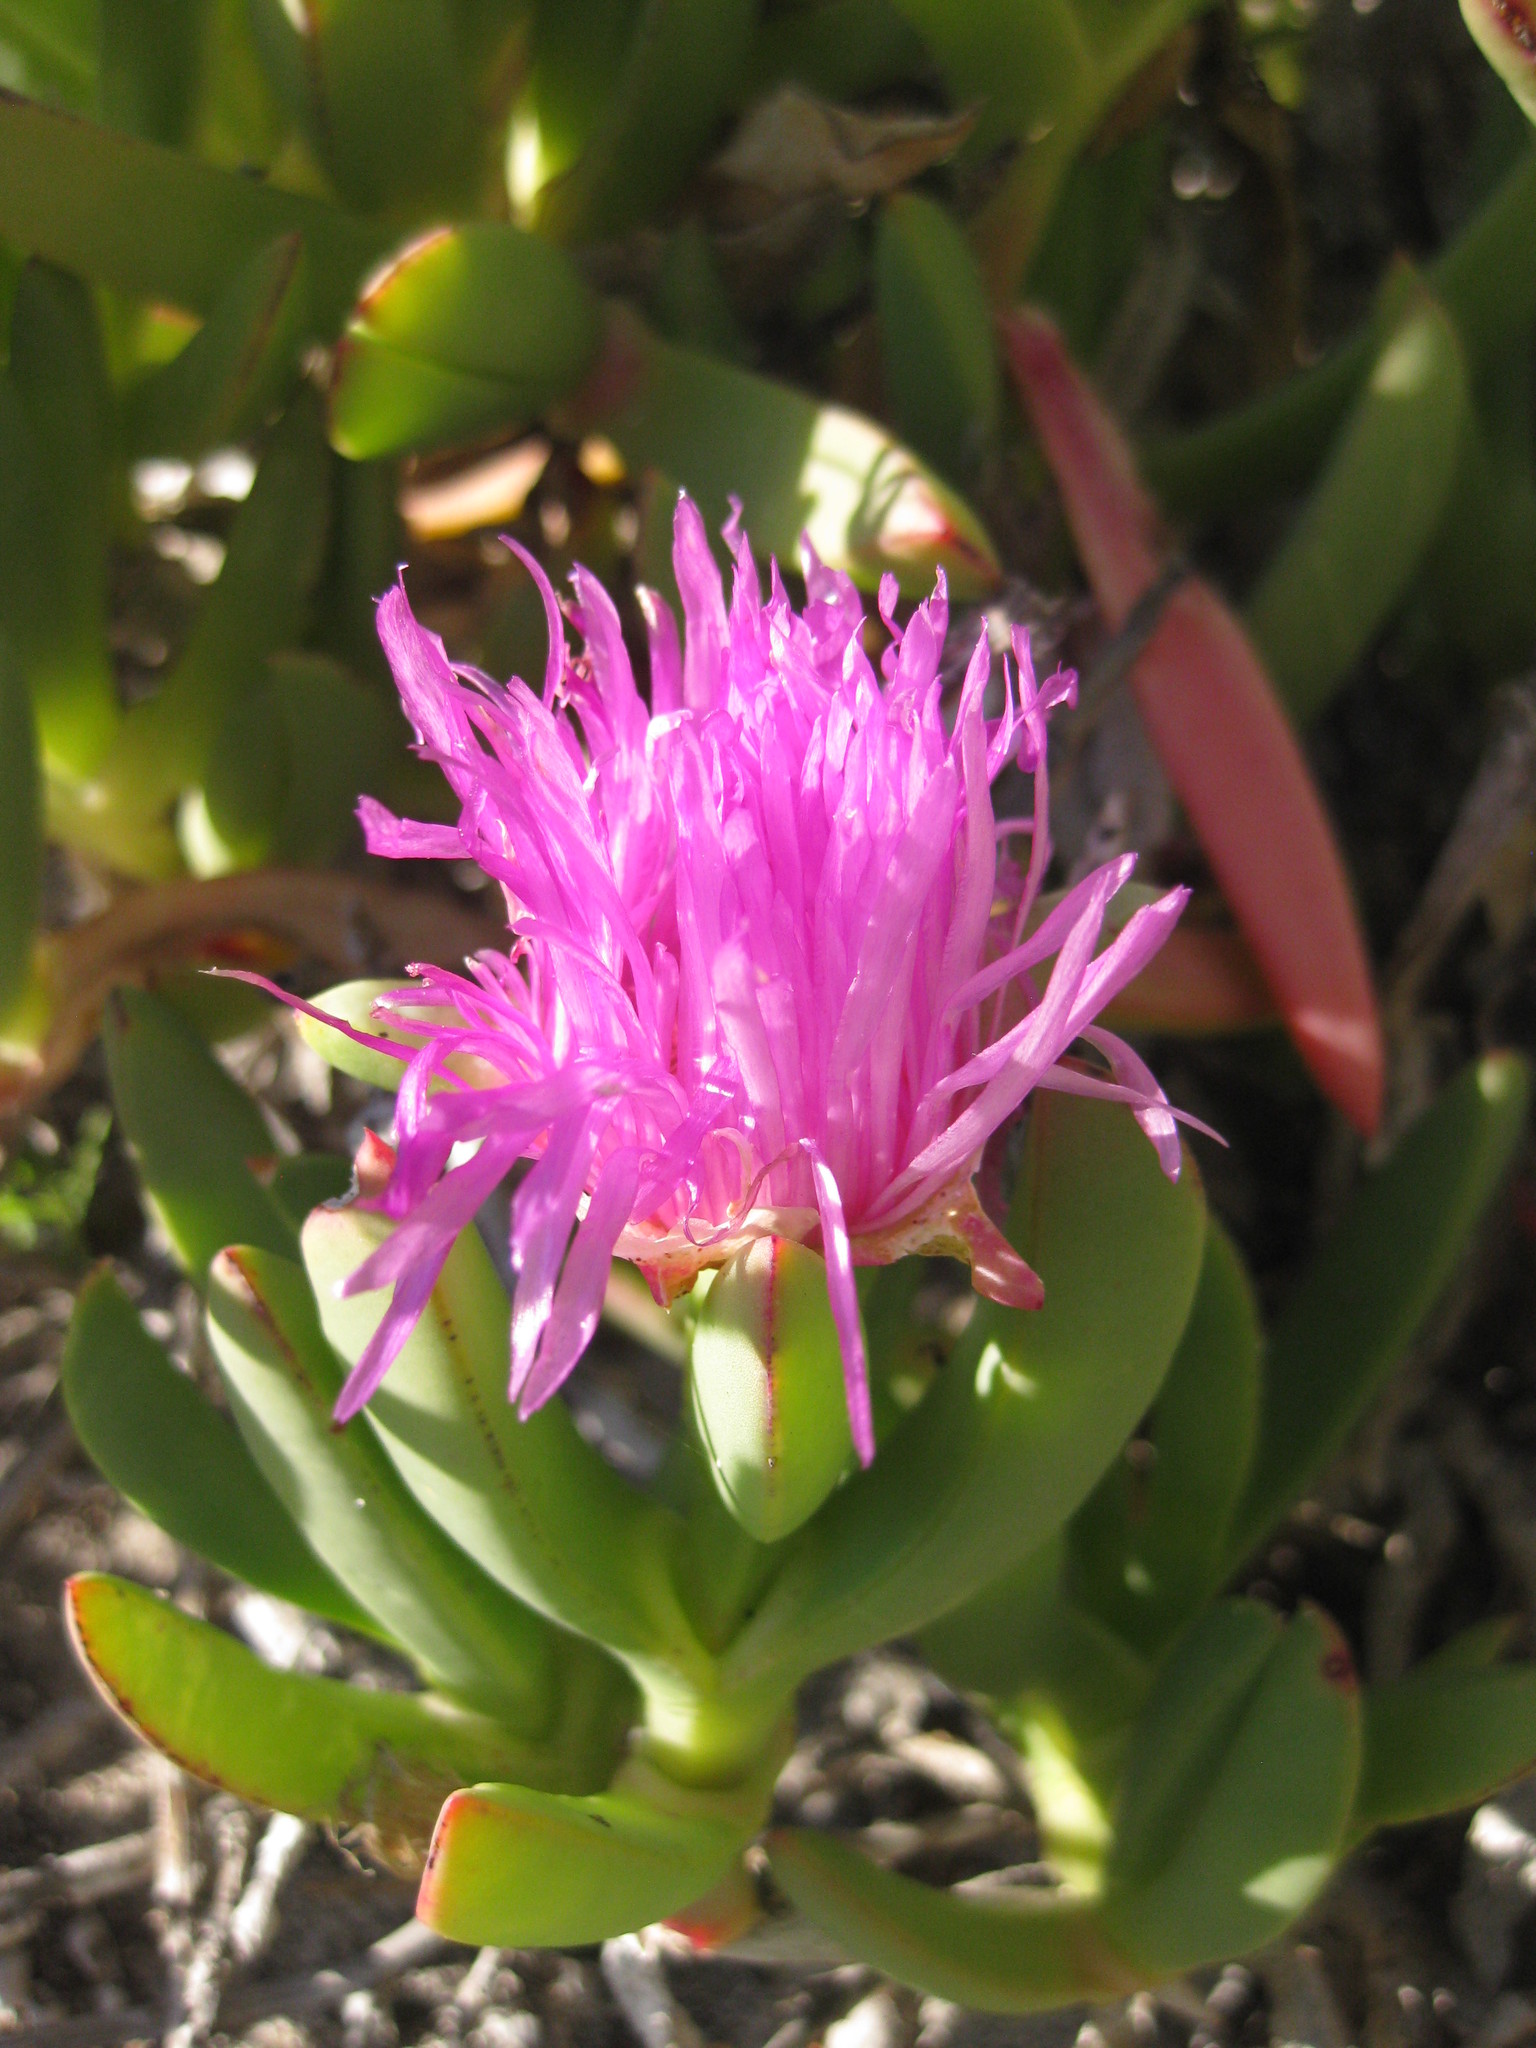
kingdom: Plantae
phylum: Tracheophyta
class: Magnoliopsida
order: Caryophyllales
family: Aizoaceae
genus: Carpobrotus
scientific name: Carpobrotus virescens
